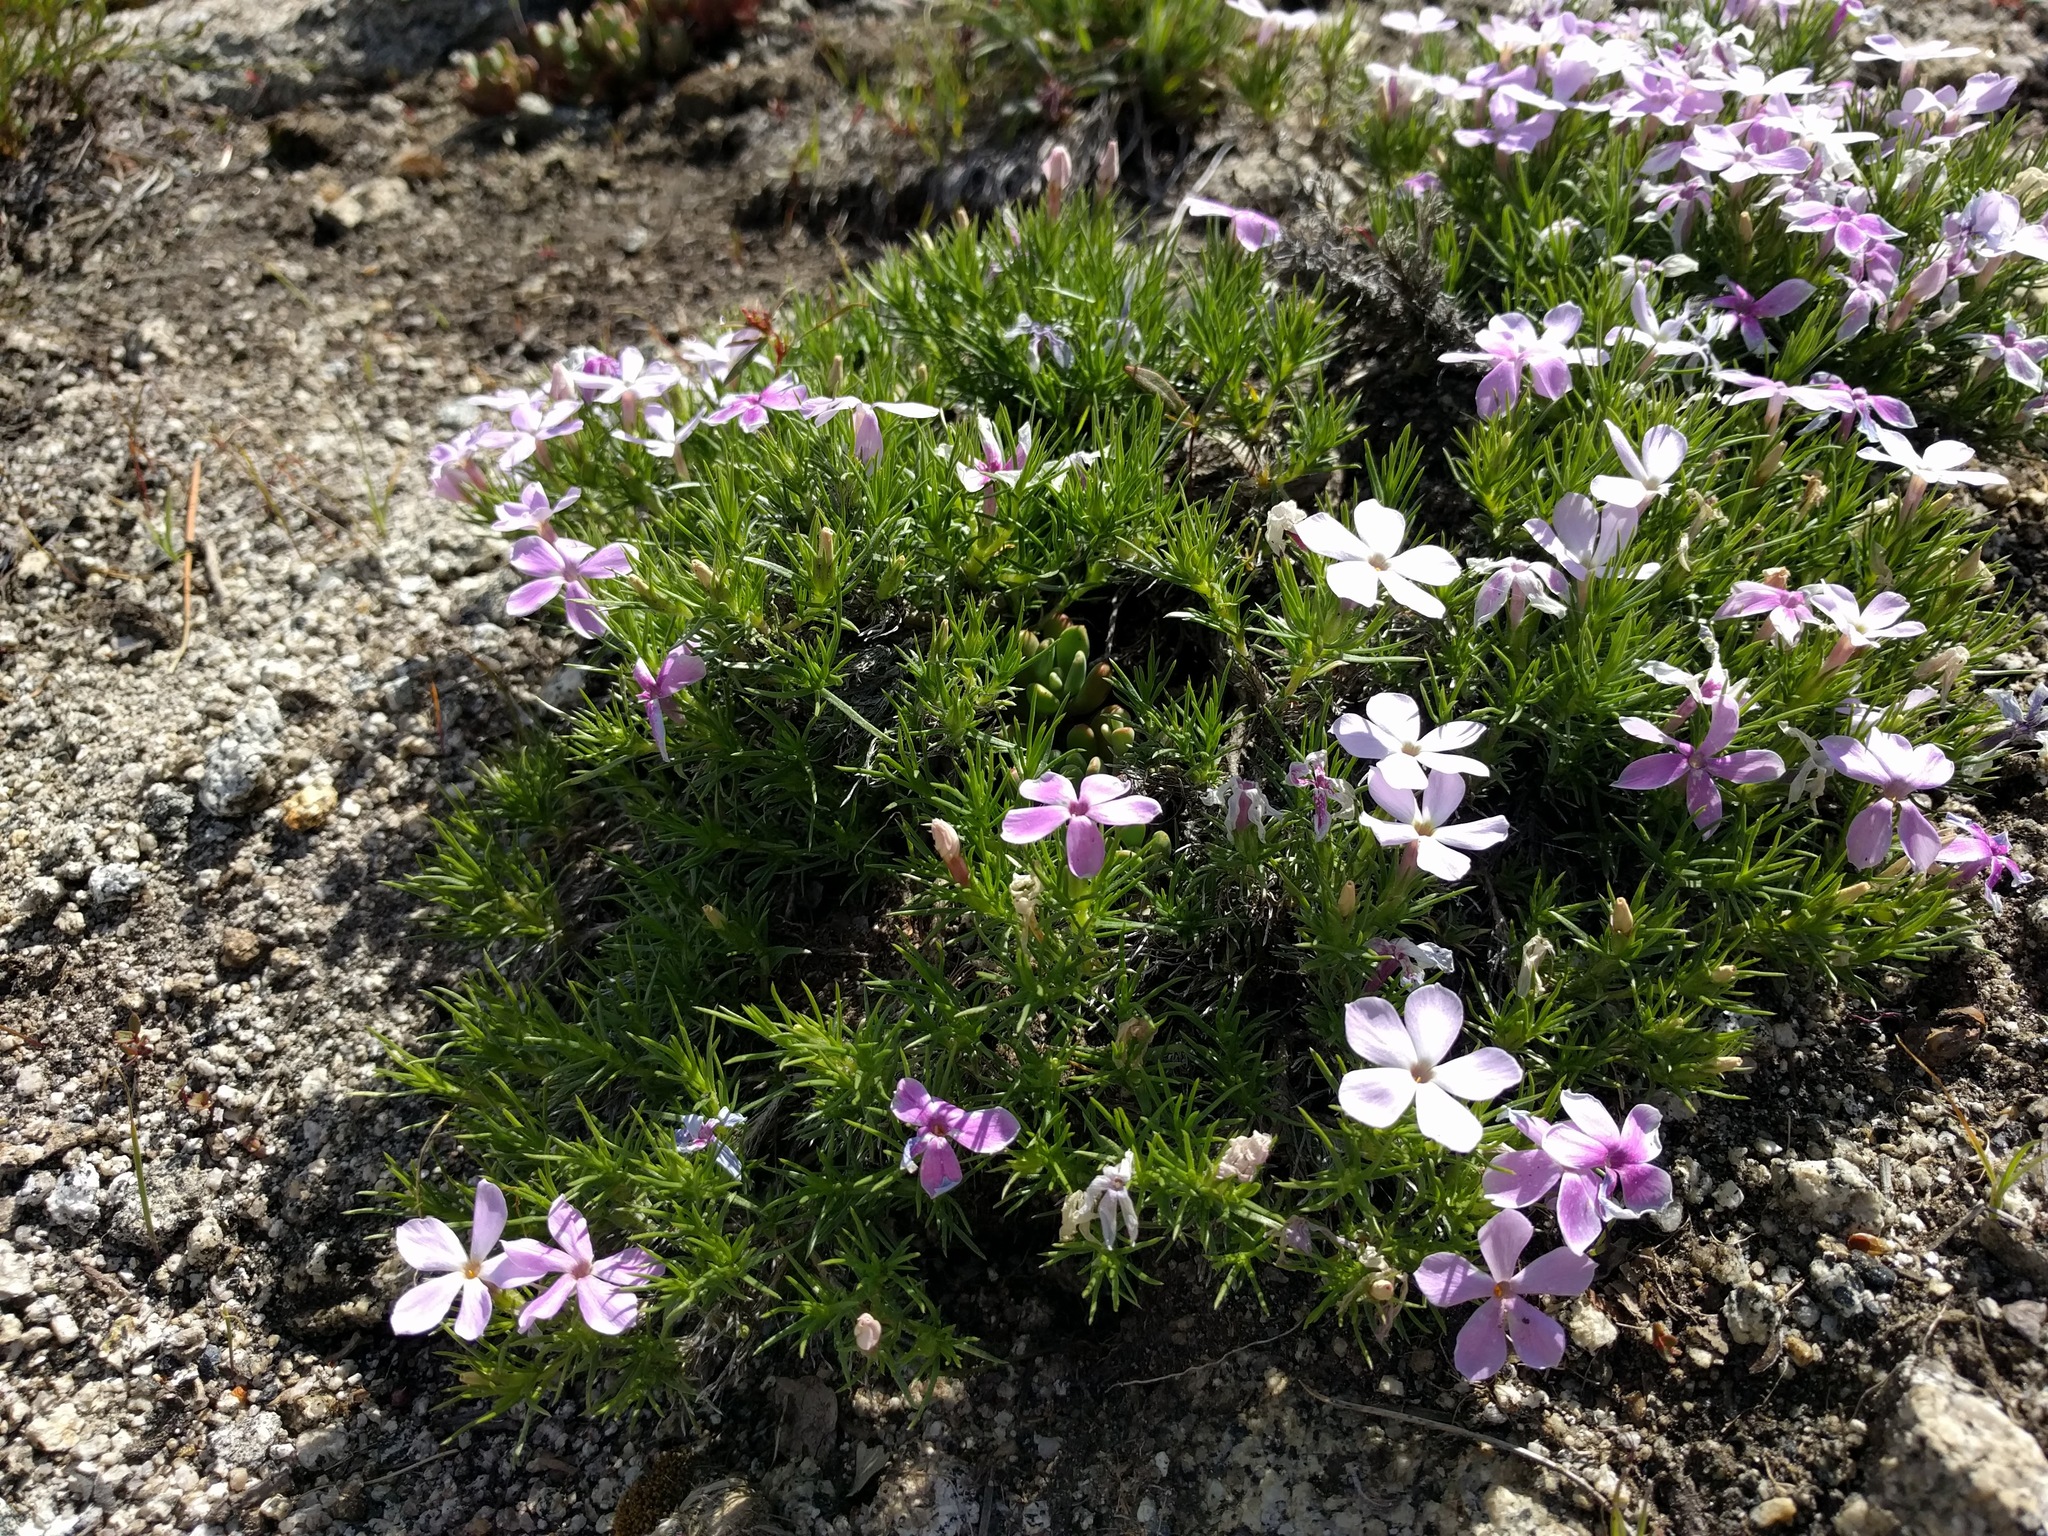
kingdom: Plantae
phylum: Tracheophyta
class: Magnoliopsida
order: Ericales
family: Polemoniaceae
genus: Phlox
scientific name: Phlox diffusa
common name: Mat phlox
